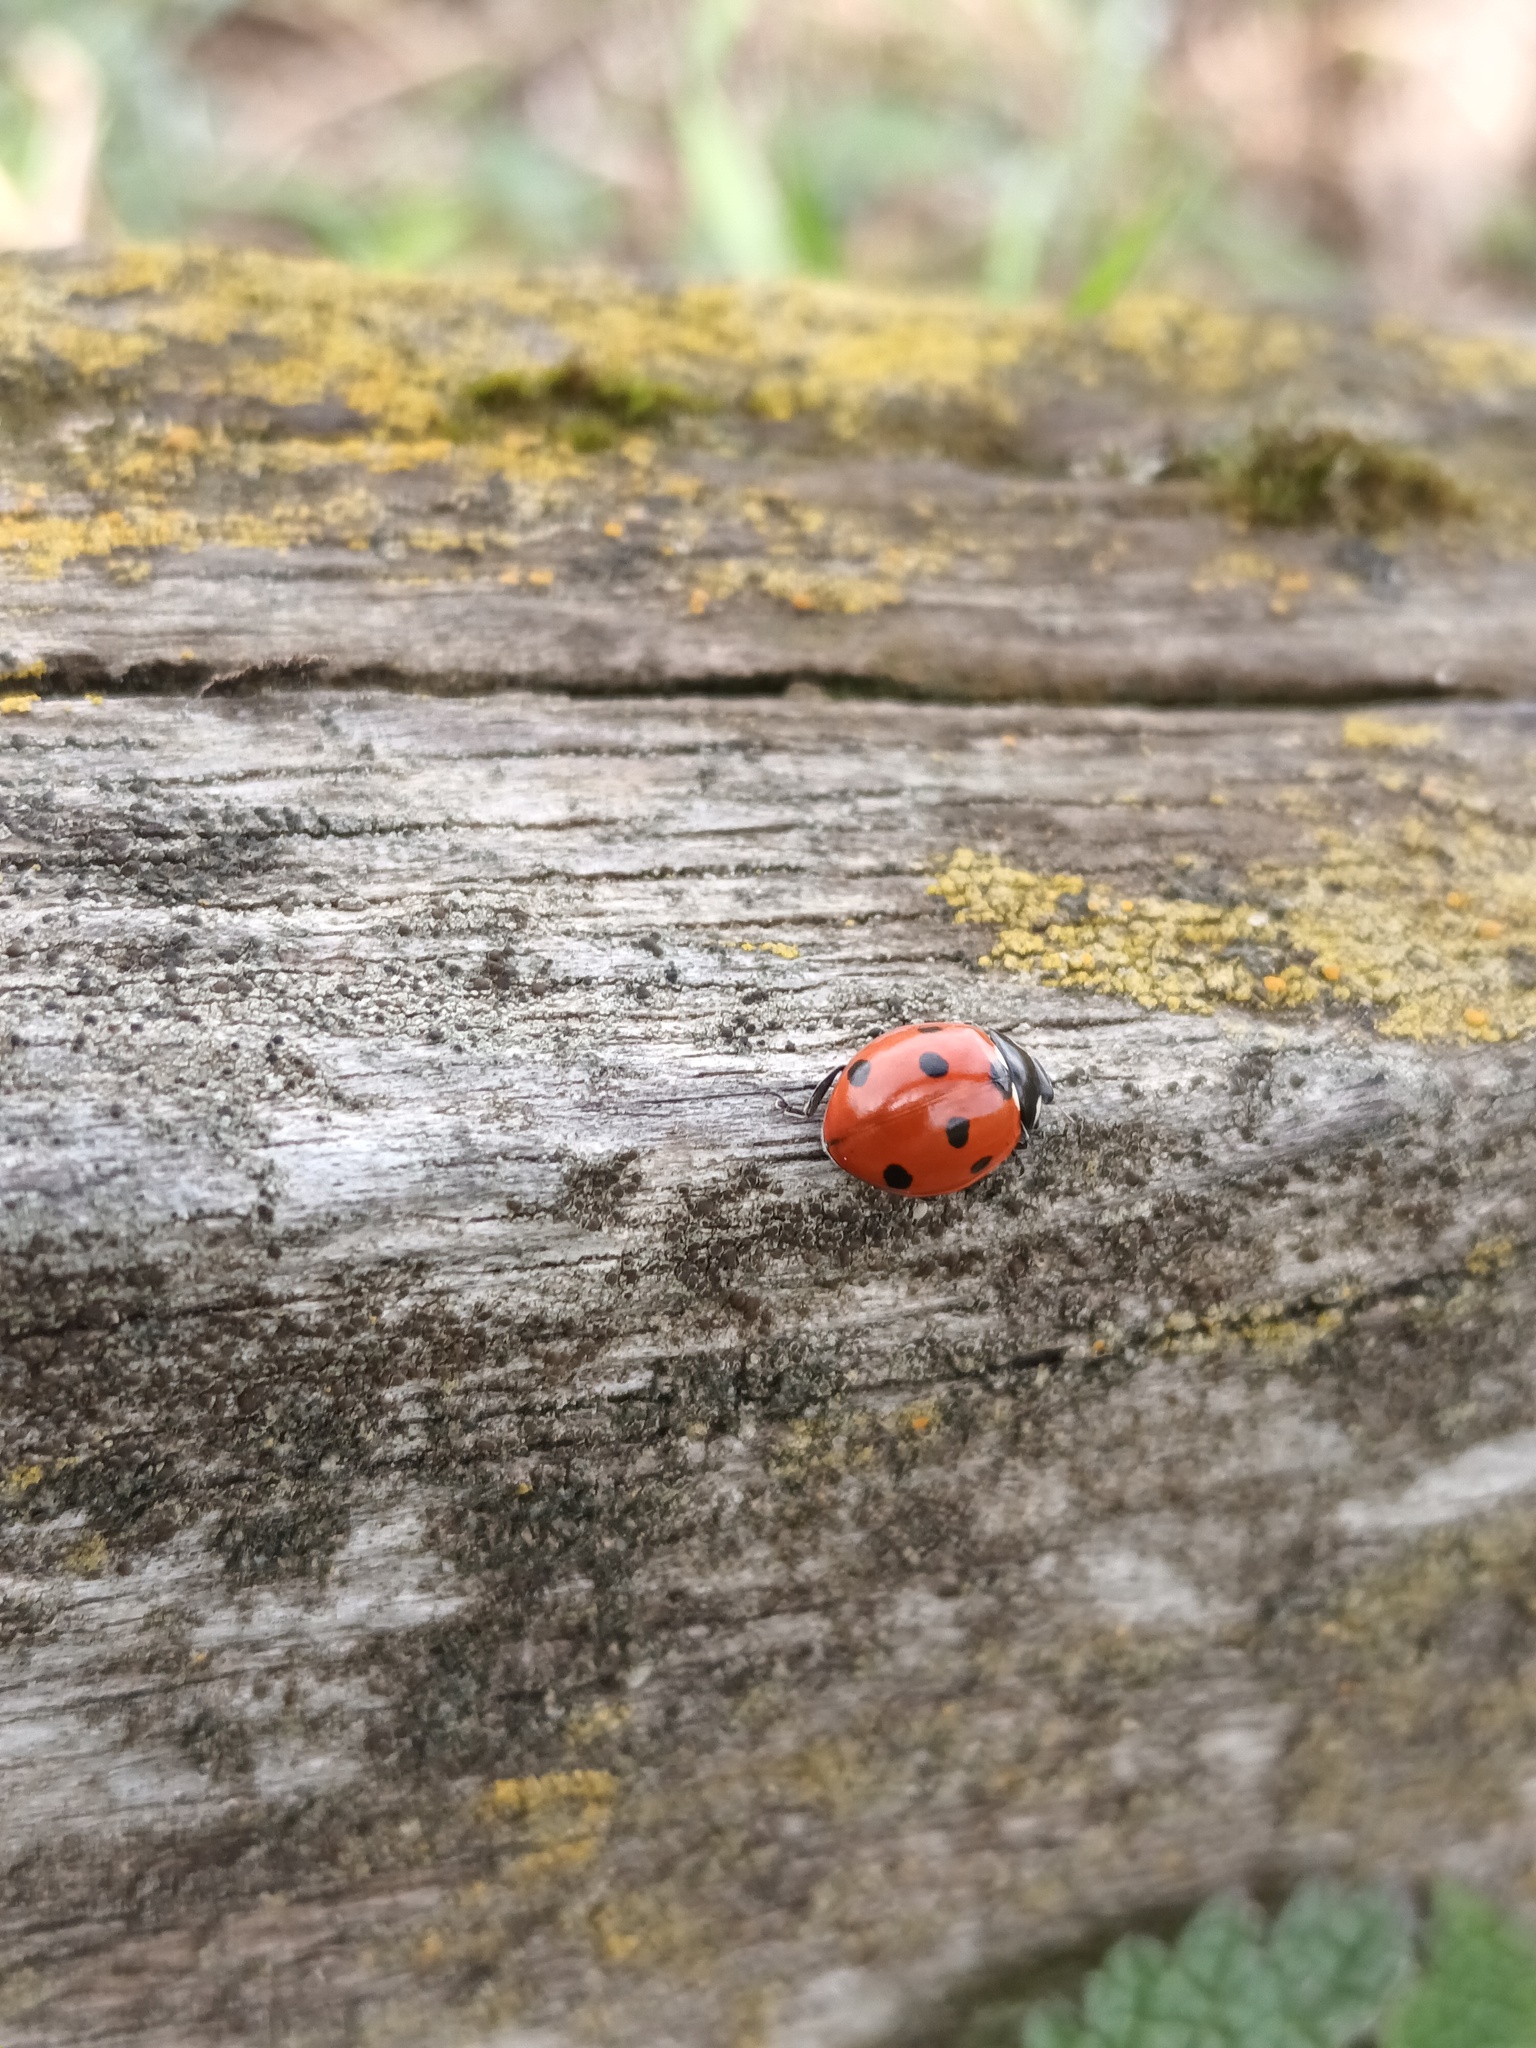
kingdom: Animalia
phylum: Arthropoda
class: Insecta
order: Coleoptera
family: Coccinellidae
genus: Coccinella
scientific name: Coccinella septempunctata
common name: Sevenspotted lady beetle
